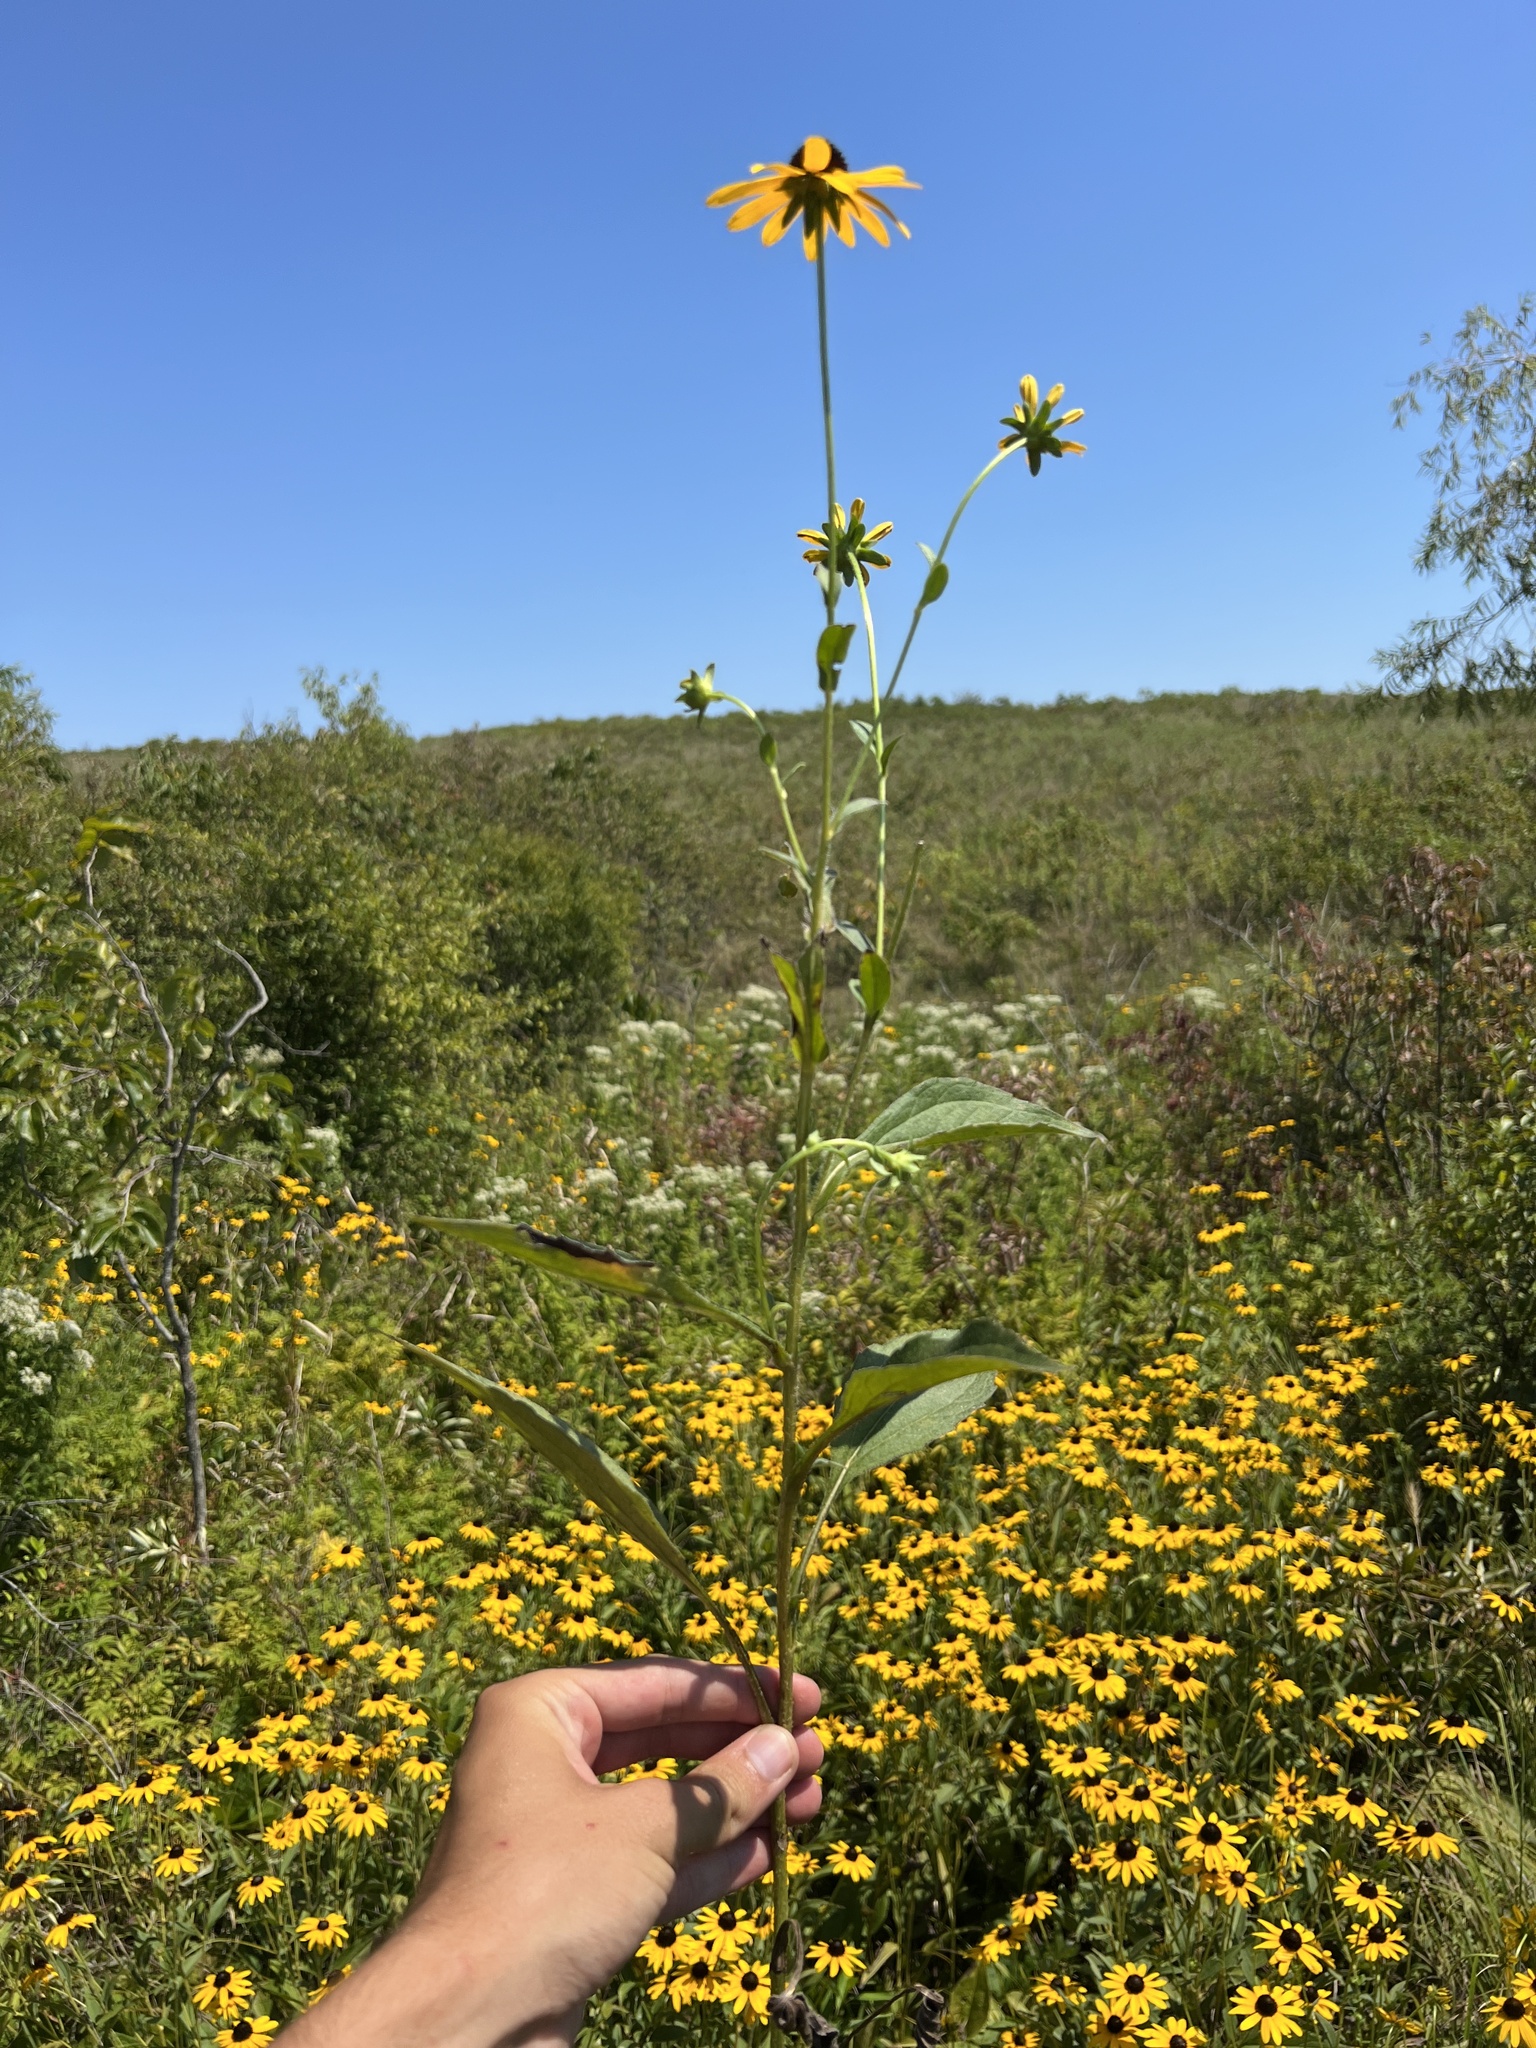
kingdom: Plantae
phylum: Tracheophyta
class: Magnoliopsida
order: Asterales
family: Asteraceae
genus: Rudbeckia
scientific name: Rudbeckia sullivantii
